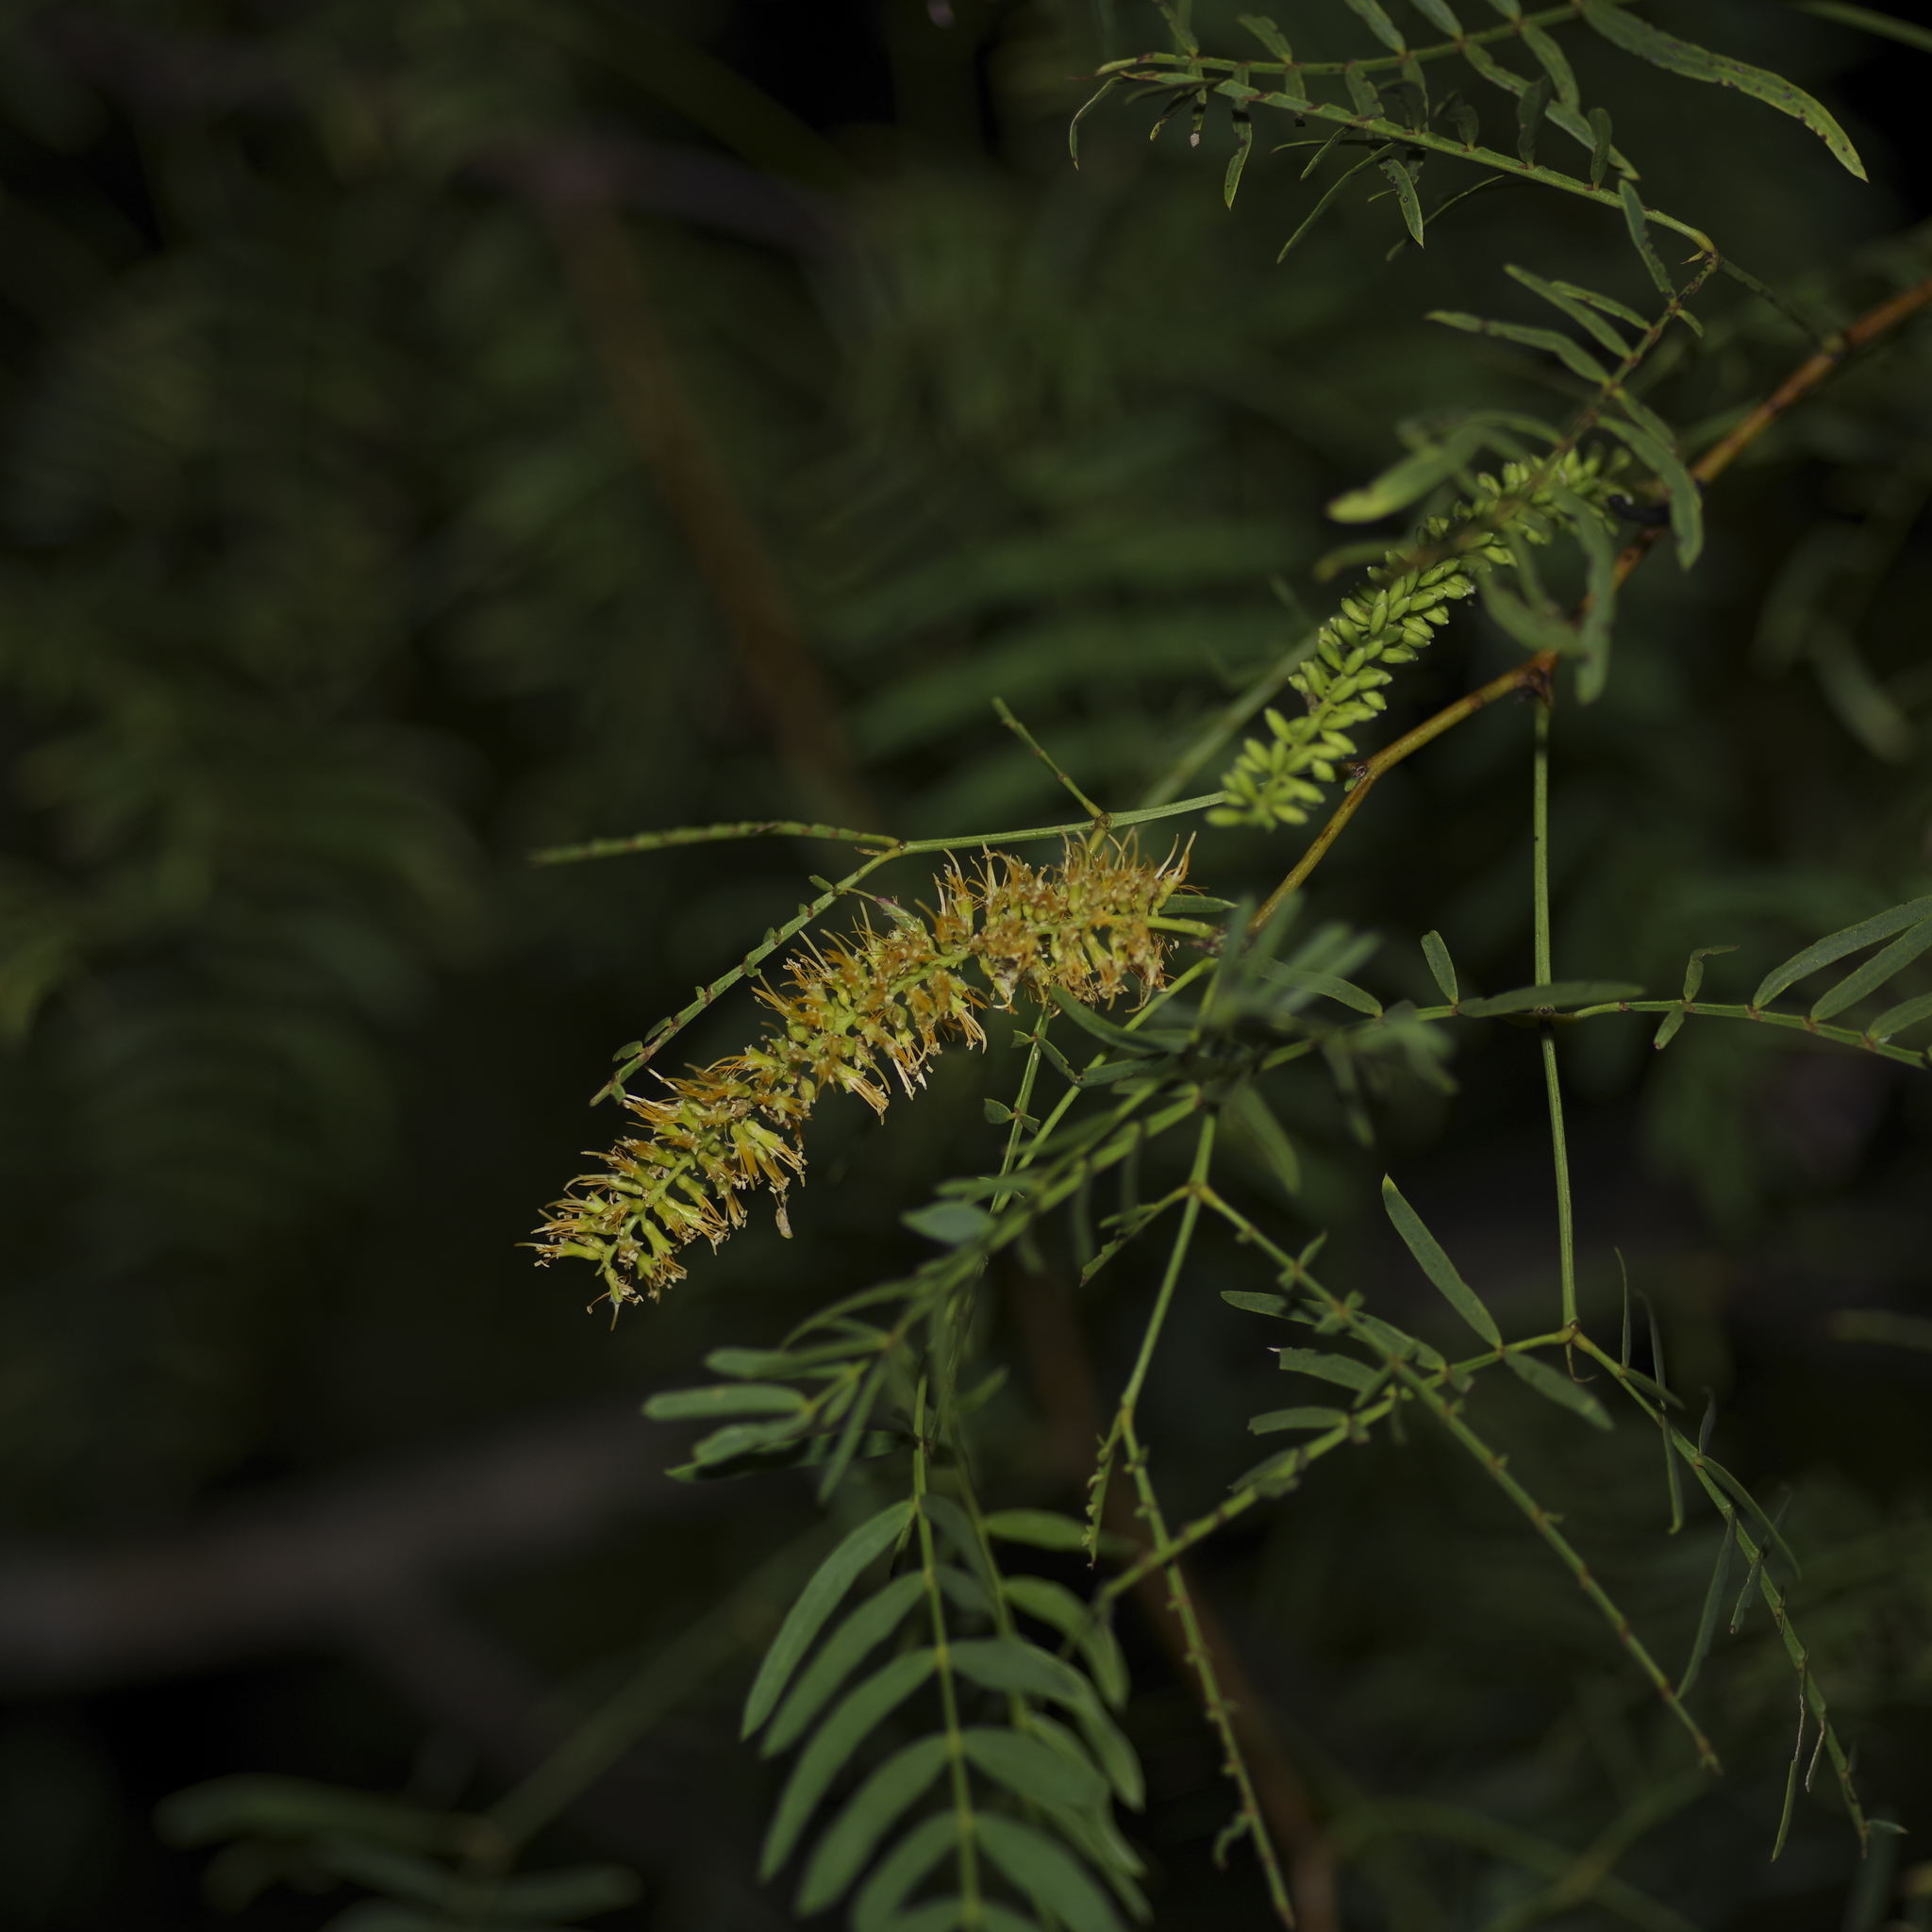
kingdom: Plantae
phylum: Tracheophyta
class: Magnoliopsida
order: Fabales
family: Fabaceae
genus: Prosopis
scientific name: Prosopis glandulosa
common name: Honey mesquite
